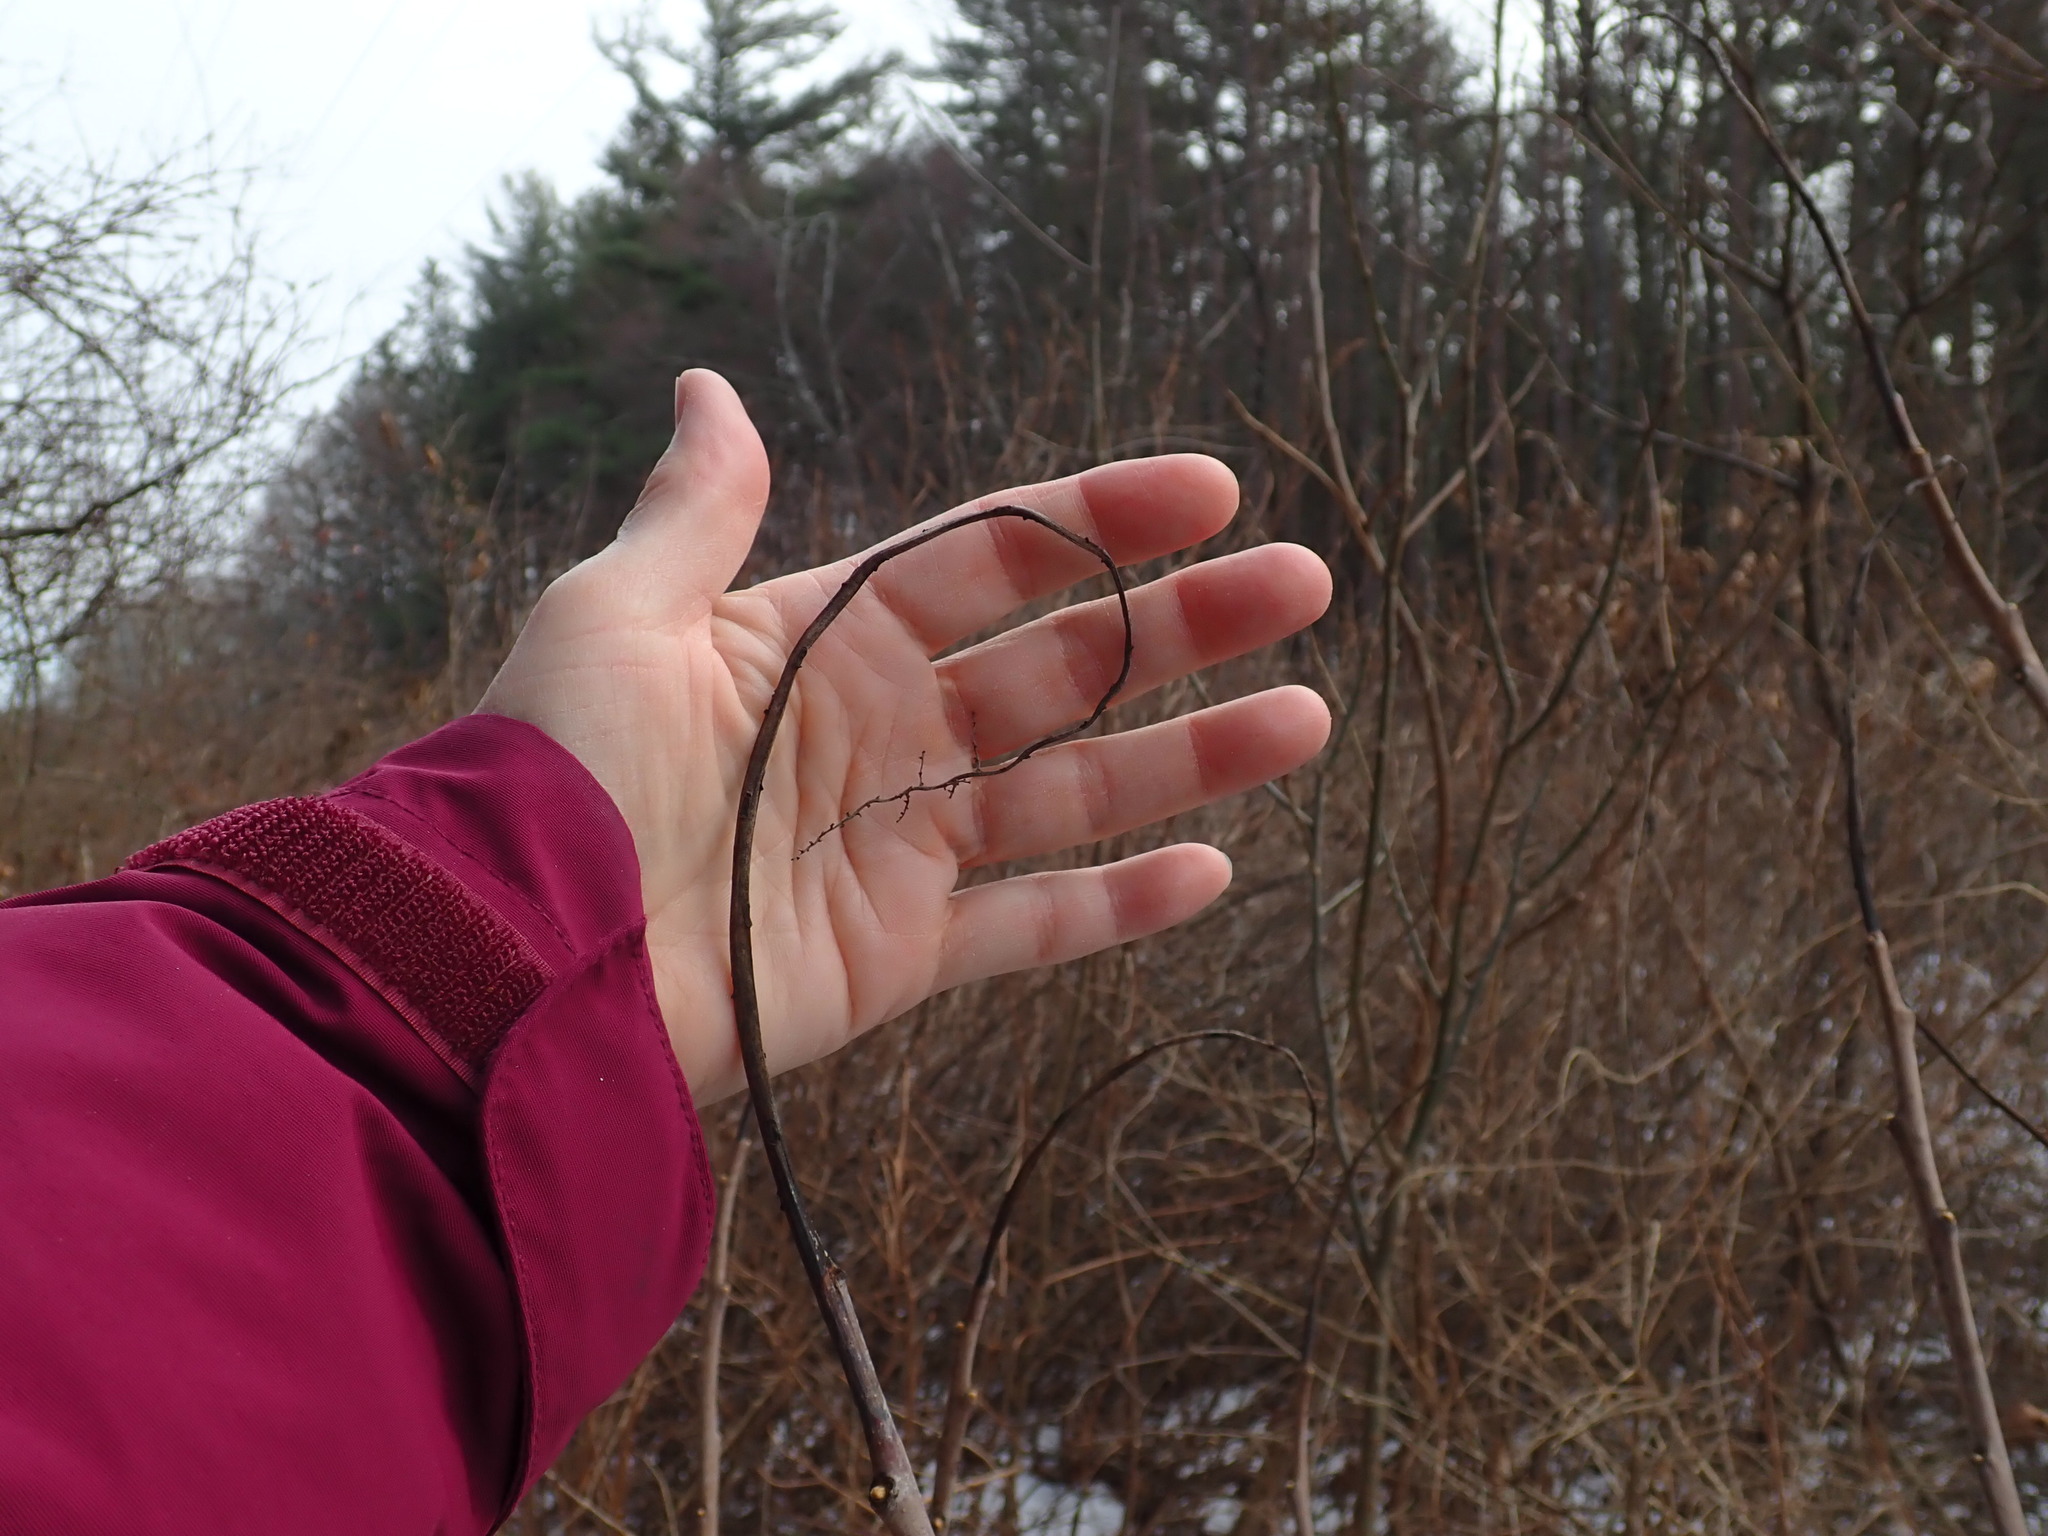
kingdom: Plantae
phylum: Tracheophyta
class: Magnoliopsida
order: Sapindales
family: Anacardiaceae
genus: Rhus
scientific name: Rhus glabra
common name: Scarlet sumac
